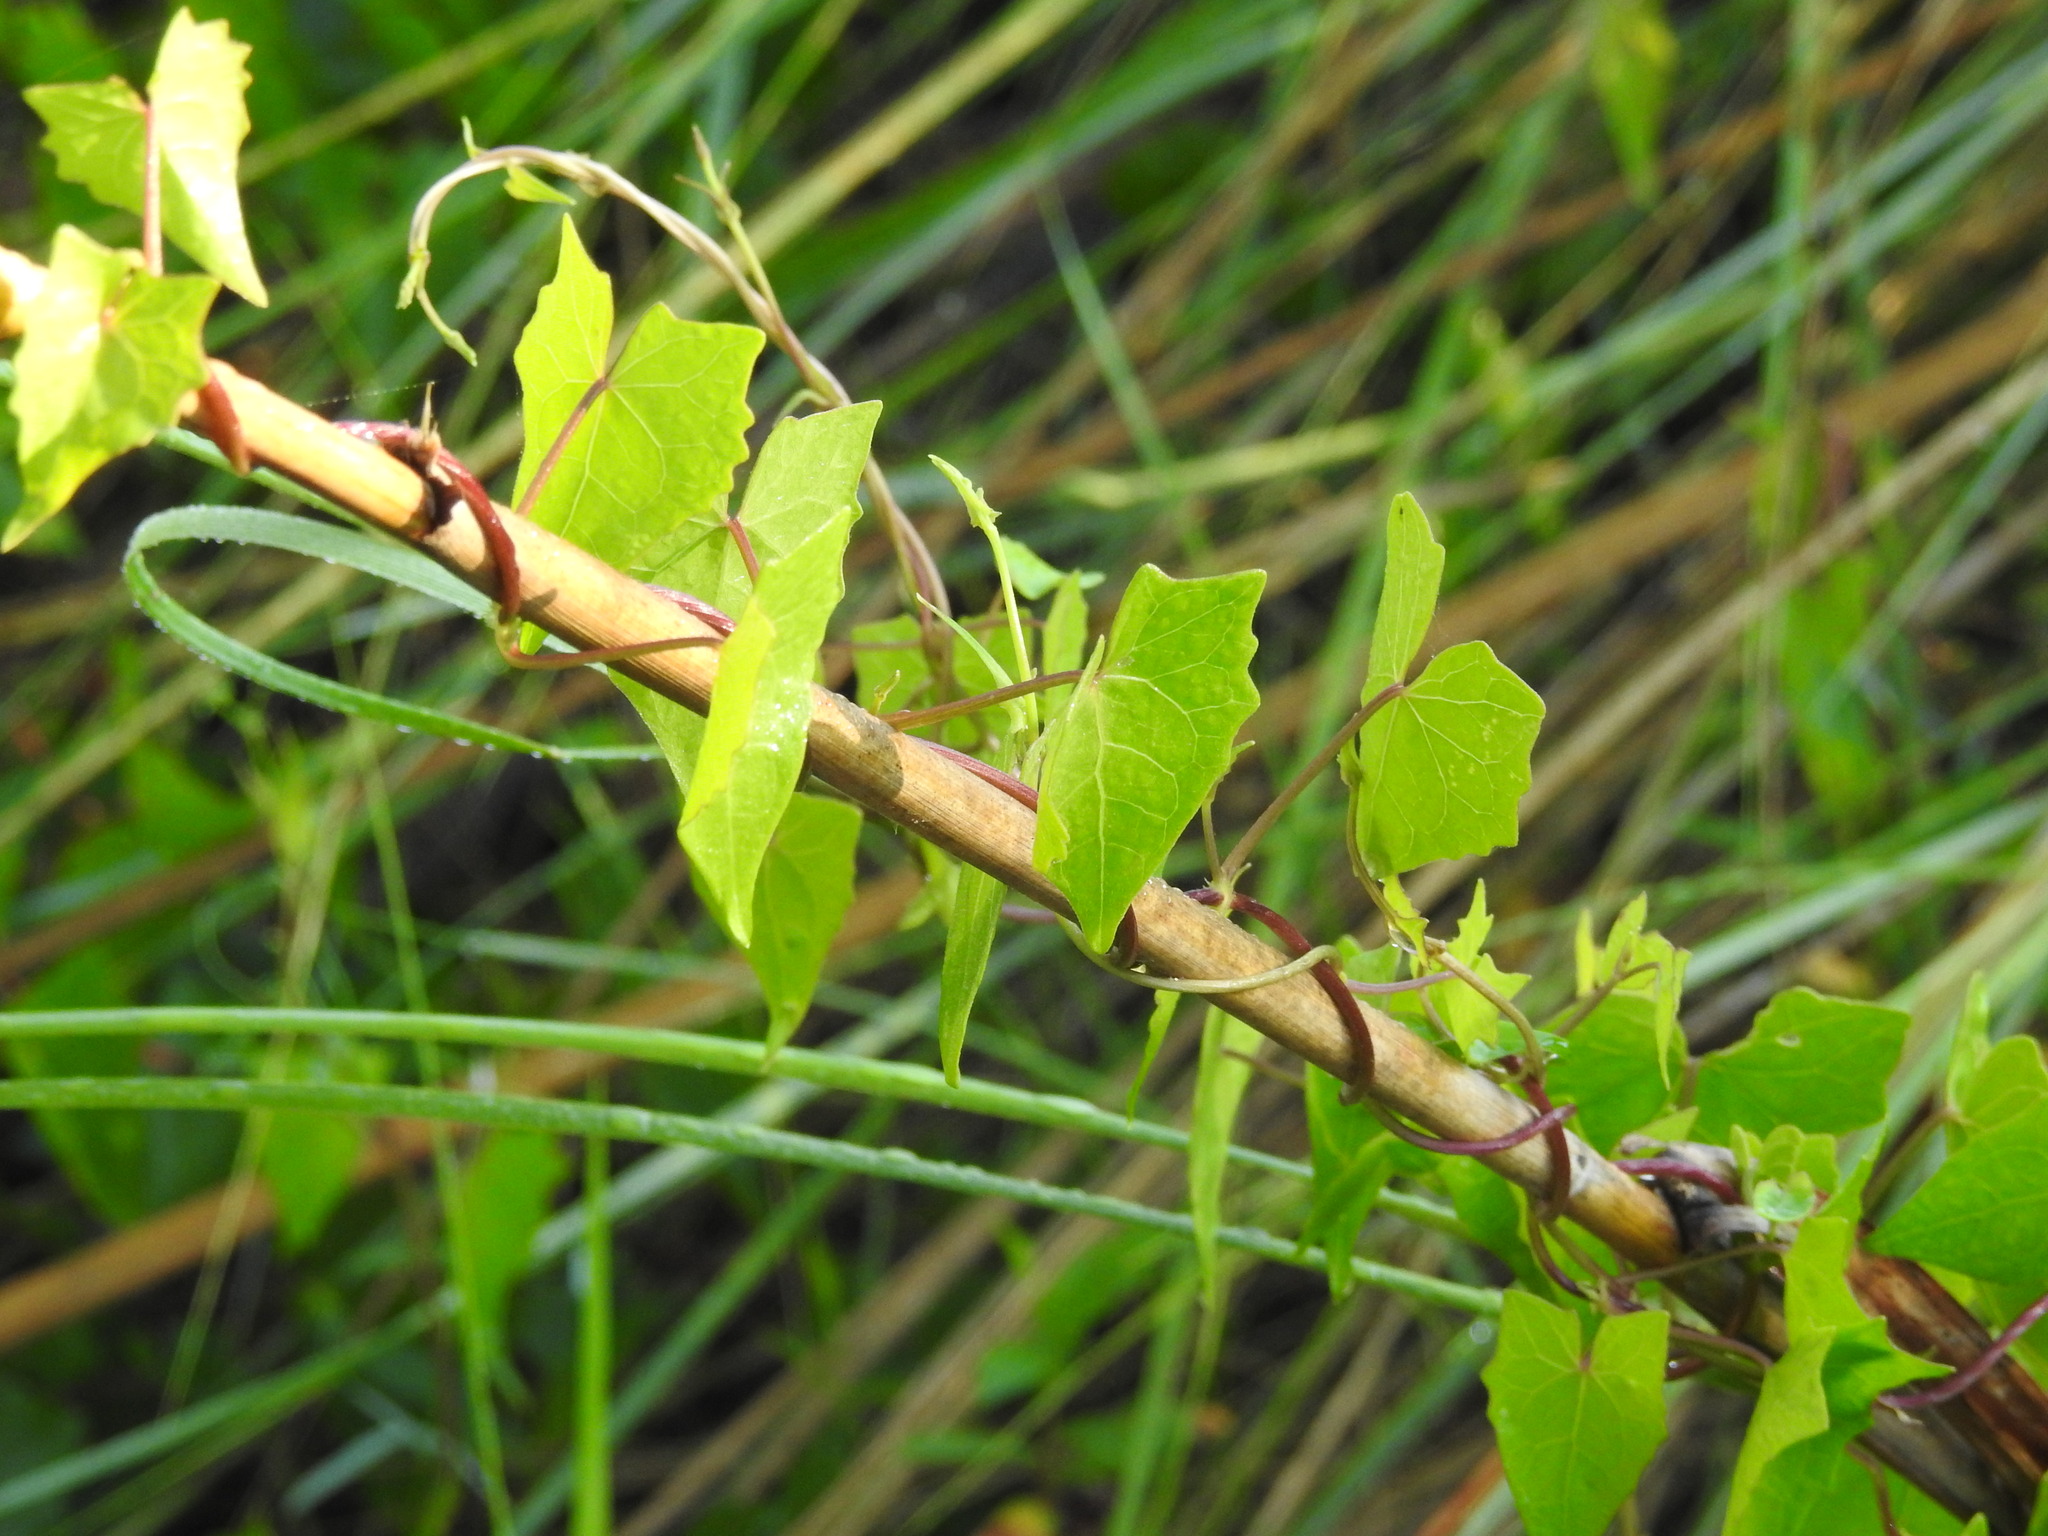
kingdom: Plantae
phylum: Tracheophyta
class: Magnoliopsida
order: Asterales
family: Asteraceae
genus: Mikania
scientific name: Mikania scandens
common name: Climbing hempvine
